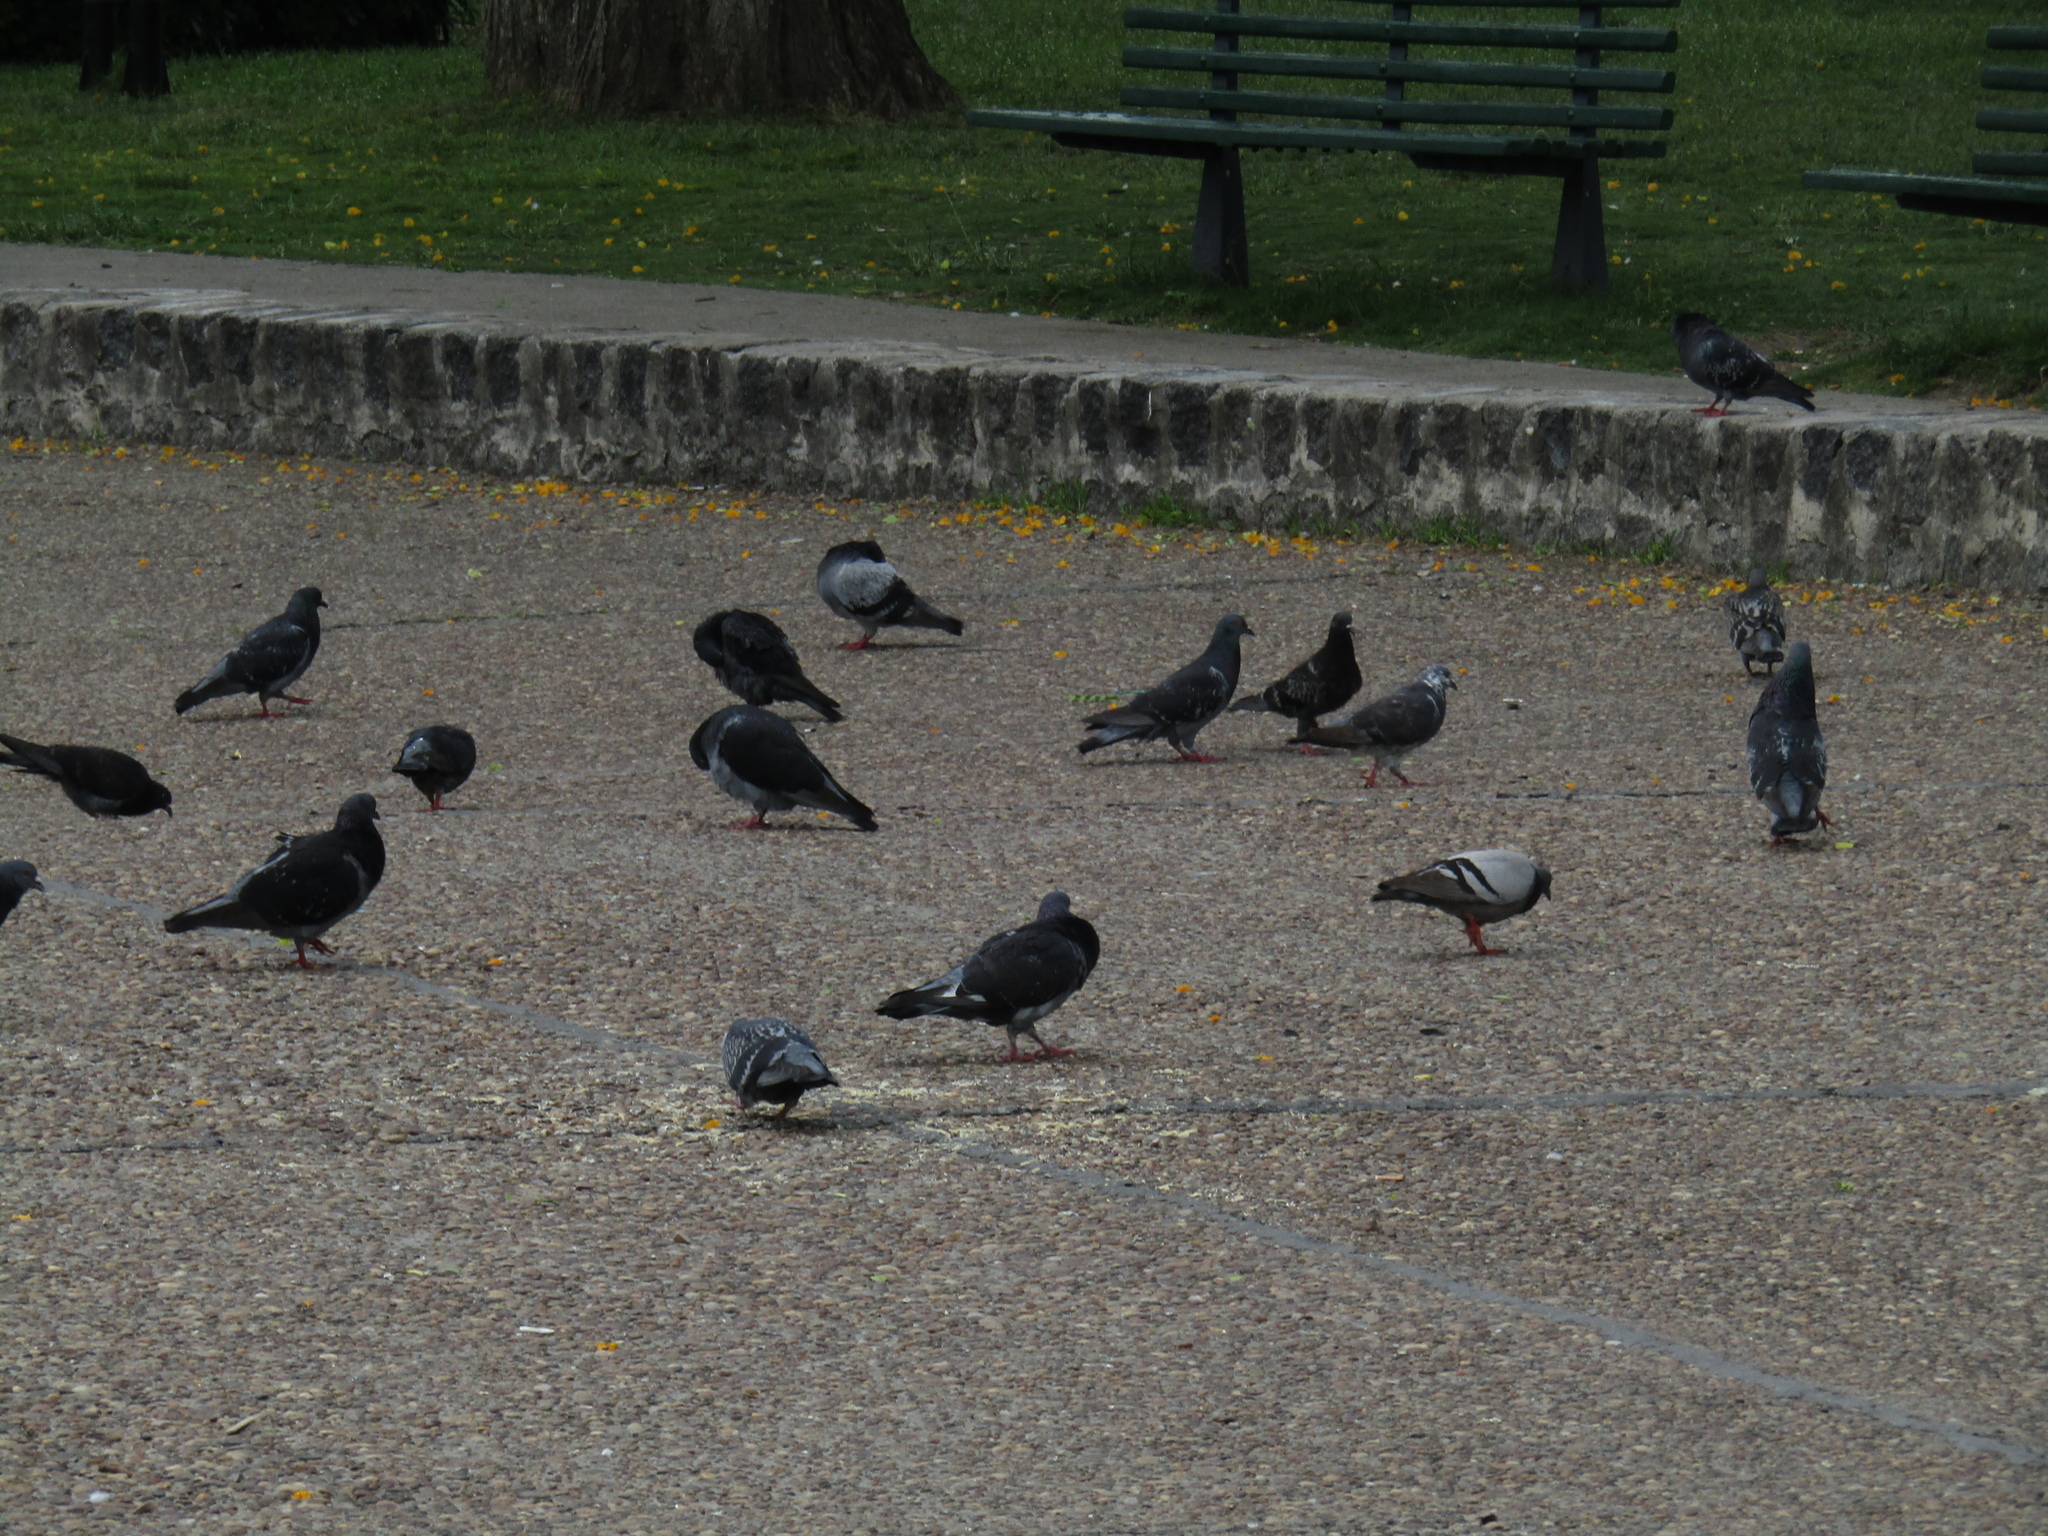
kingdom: Animalia
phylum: Chordata
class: Aves
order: Columbiformes
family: Columbidae
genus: Columba
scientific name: Columba livia
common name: Rock pigeon
